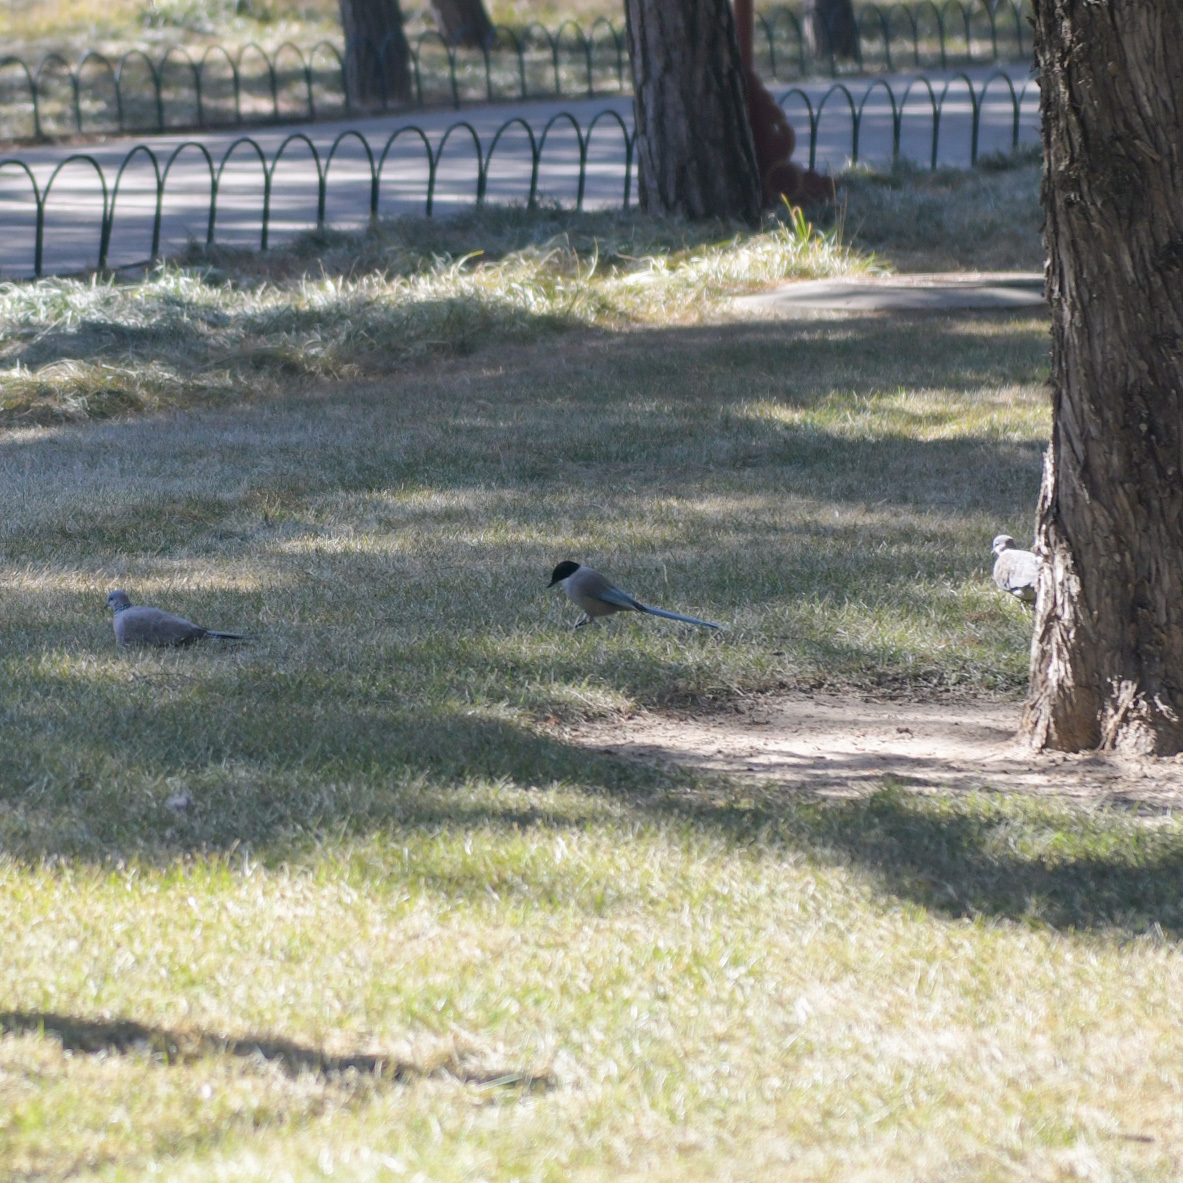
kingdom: Animalia
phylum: Chordata
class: Aves
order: Passeriformes
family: Corvidae
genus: Cyanopica
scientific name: Cyanopica cyanus
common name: Azure-winged magpie
